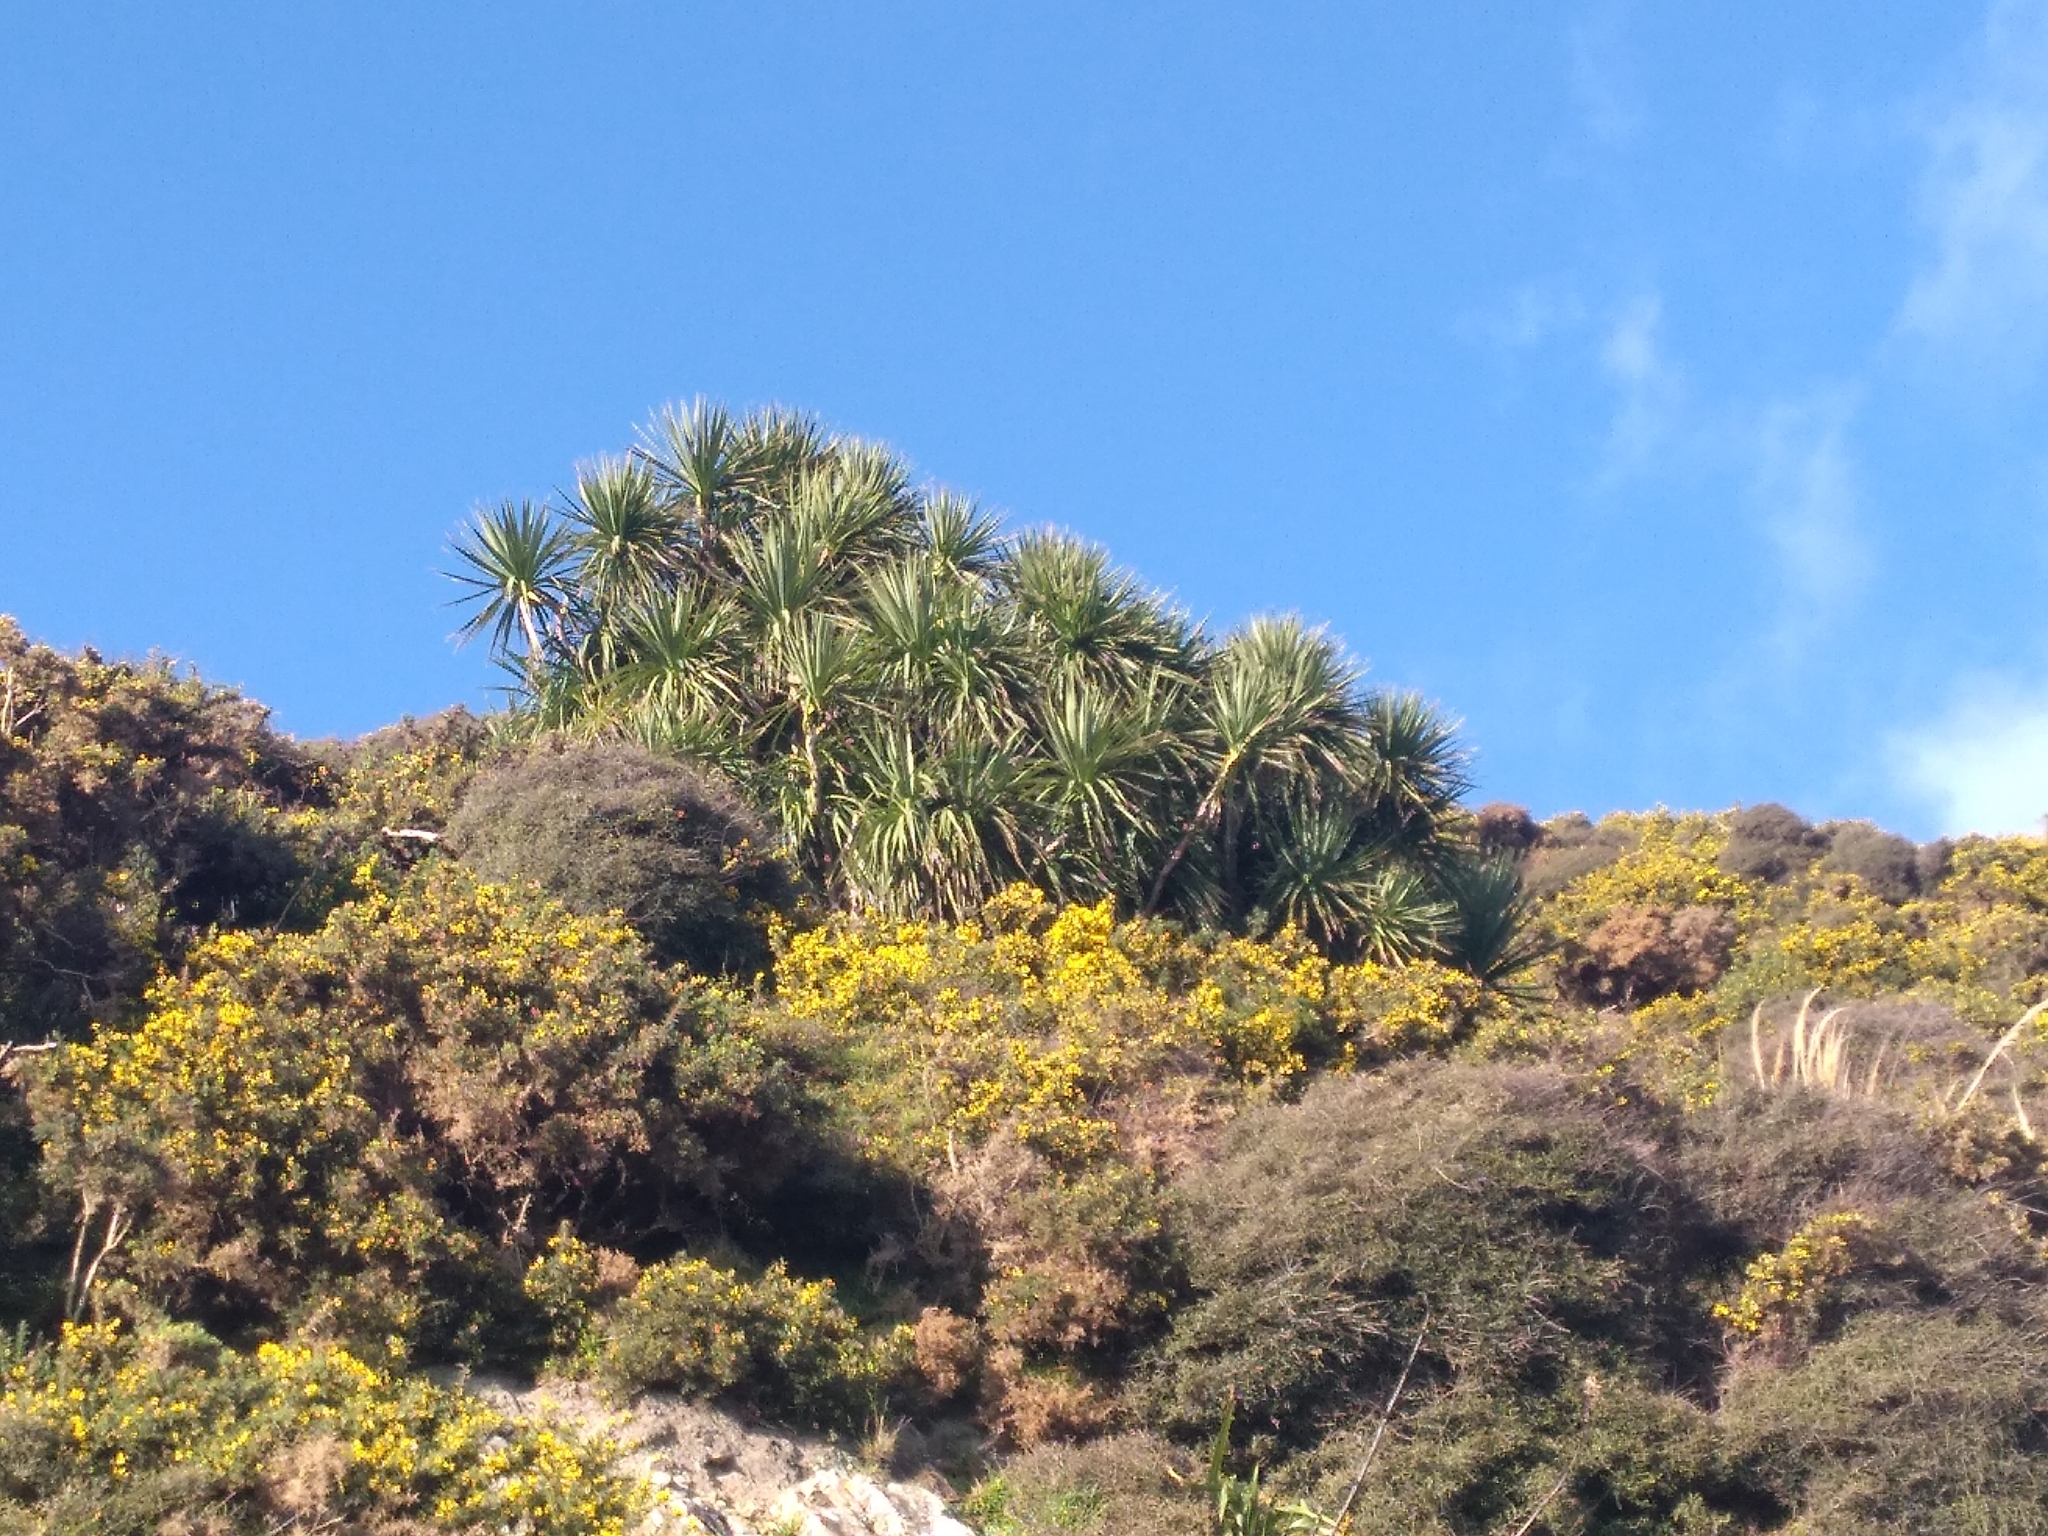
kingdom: Plantae
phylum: Tracheophyta
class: Liliopsida
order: Asparagales
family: Asparagaceae
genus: Cordyline
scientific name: Cordyline australis
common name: Cabbage-palm
